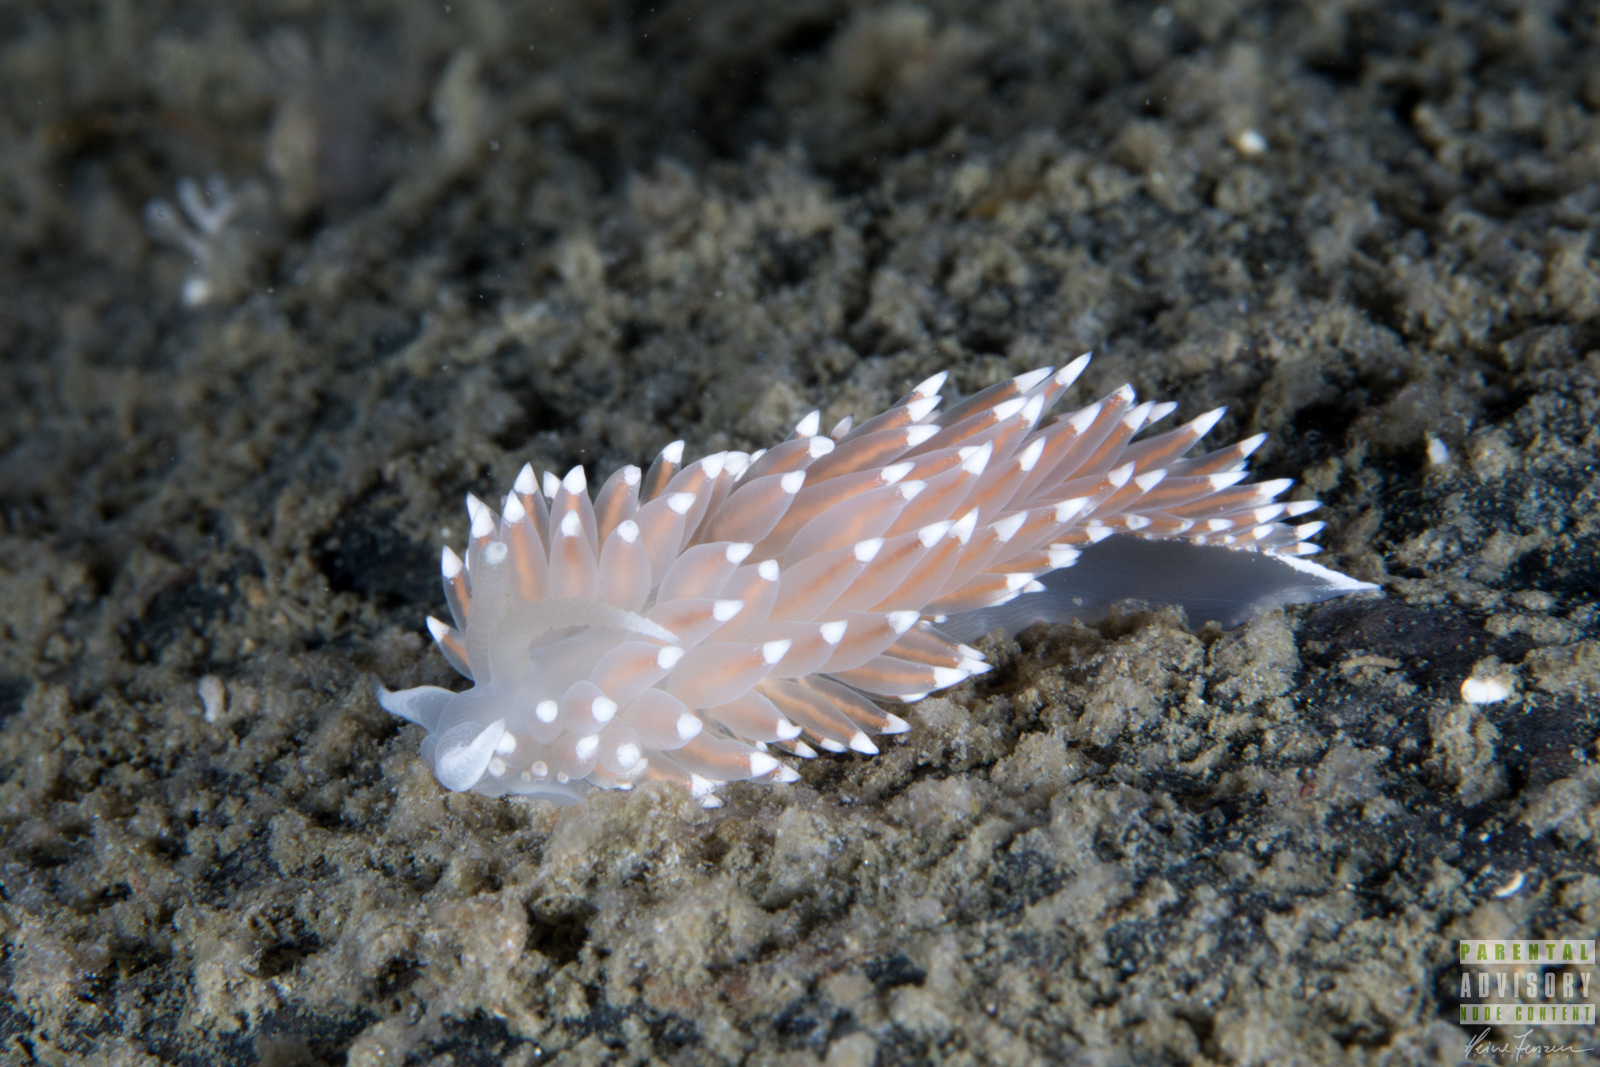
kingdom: Animalia
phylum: Mollusca
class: Gastropoda
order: Nudibranchia
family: Coryphellidae
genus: Coryphella
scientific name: Coryphella nobilis
